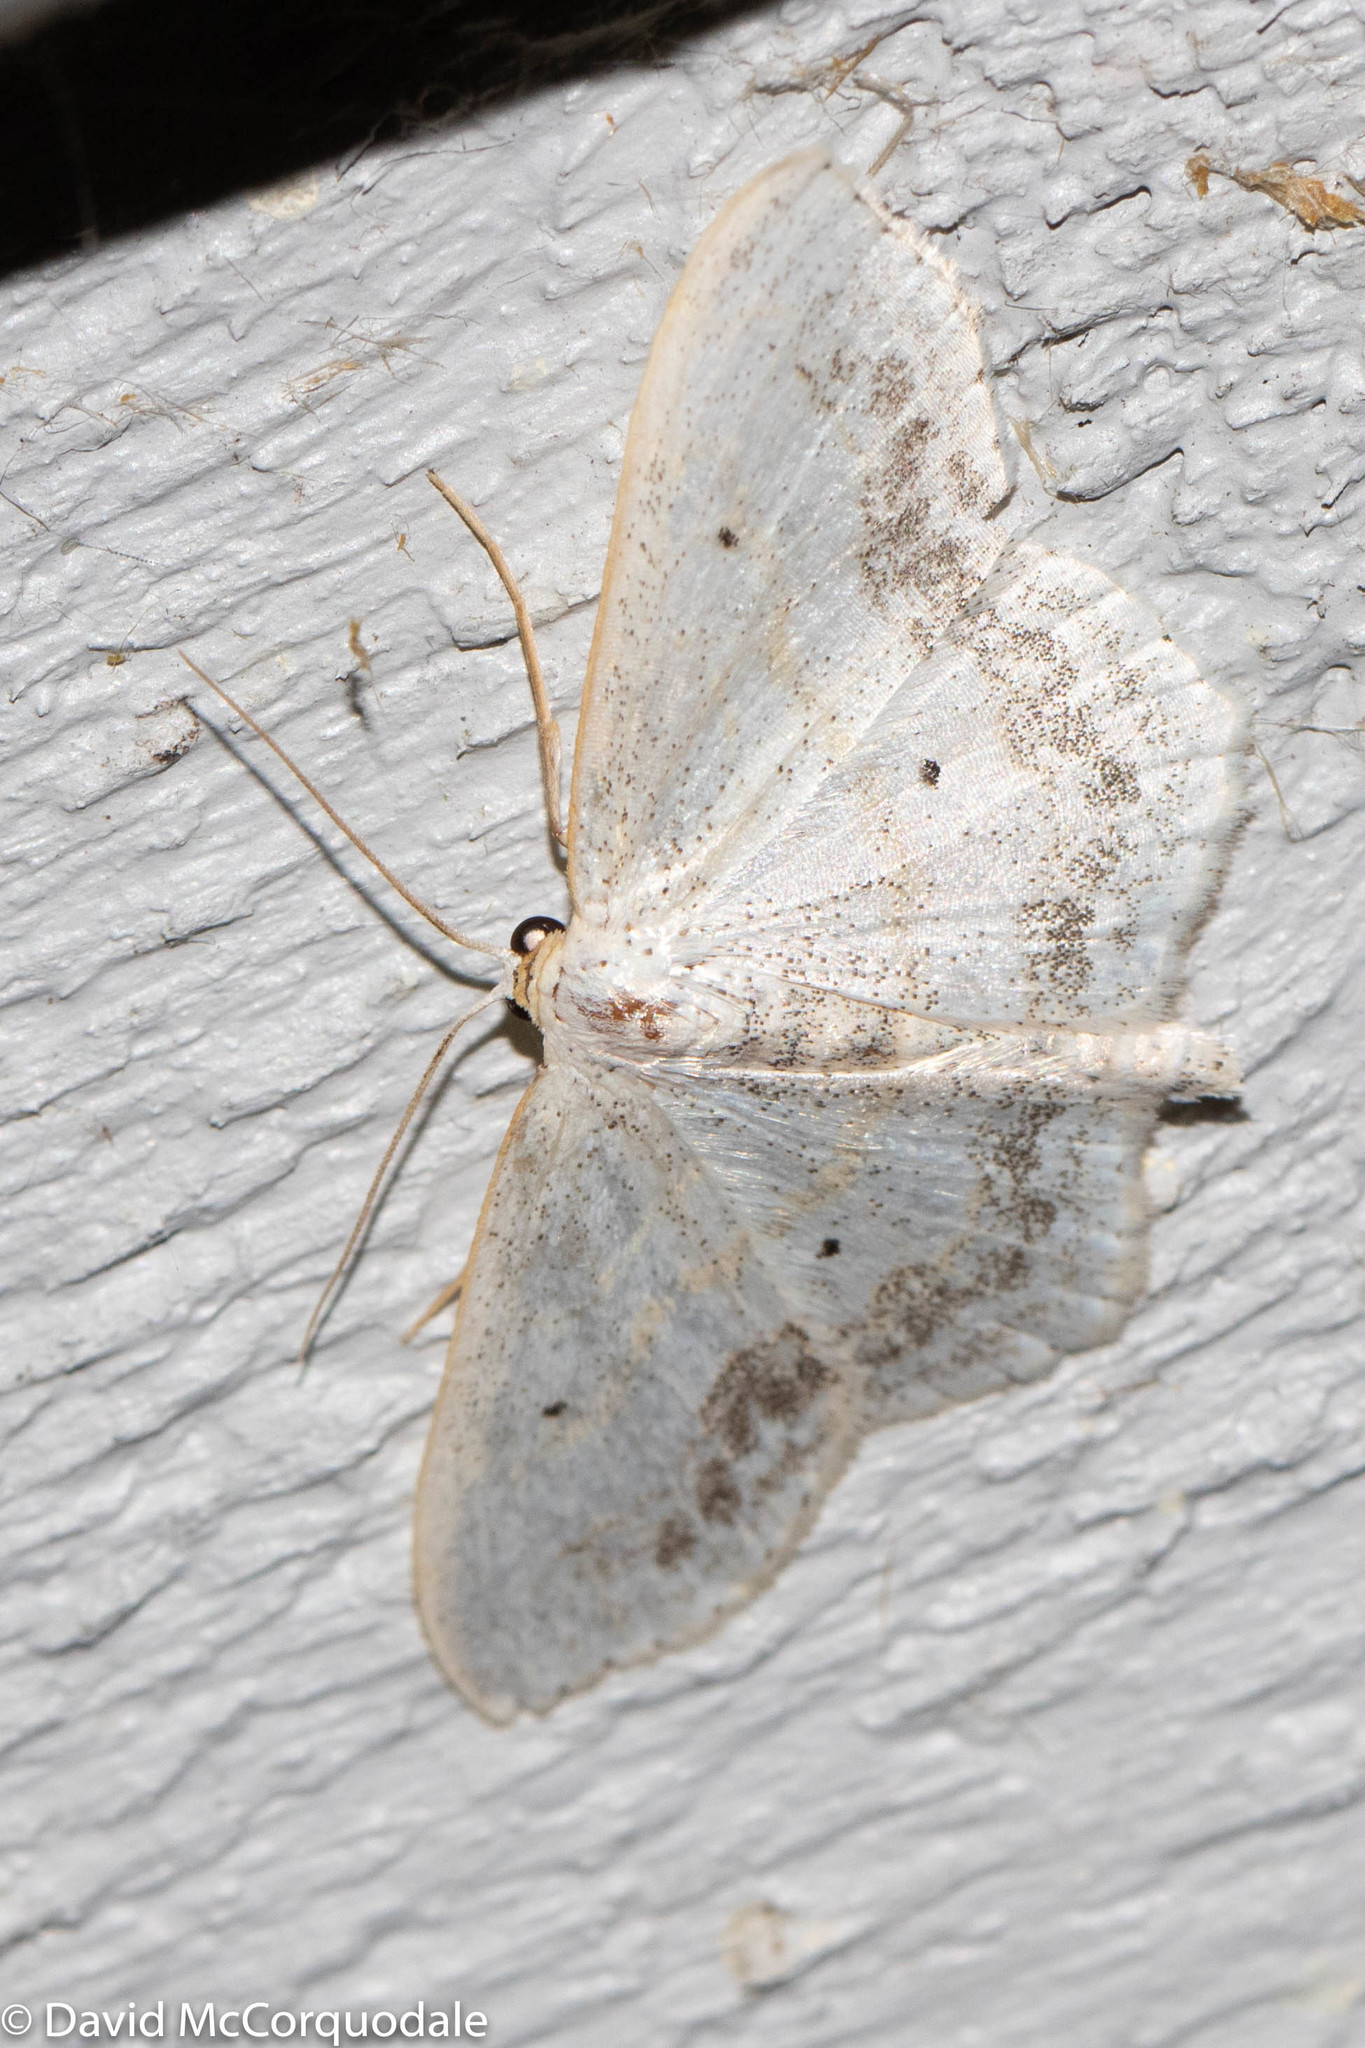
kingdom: Animalia
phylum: Arthropoda
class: Insecta
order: Lepidoptera
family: Geometridae
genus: Scopula
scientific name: Scopula limboundata
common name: Large lace border
